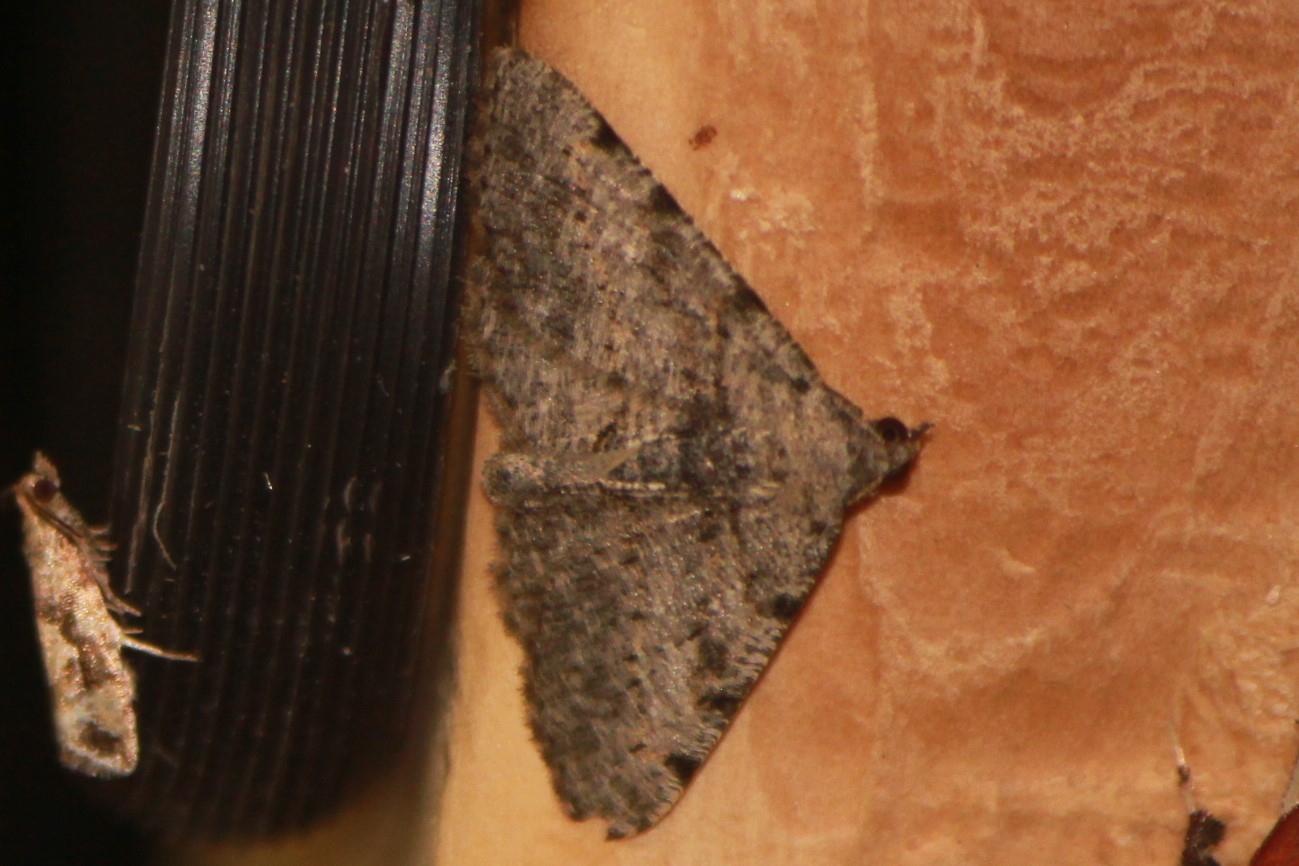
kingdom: Animalia
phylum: Arthropoda
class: Insecta
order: Lepidoptera
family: Geometridae
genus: Digrammia
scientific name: Digrammia gnophosaria
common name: Hollow-spotted angle
